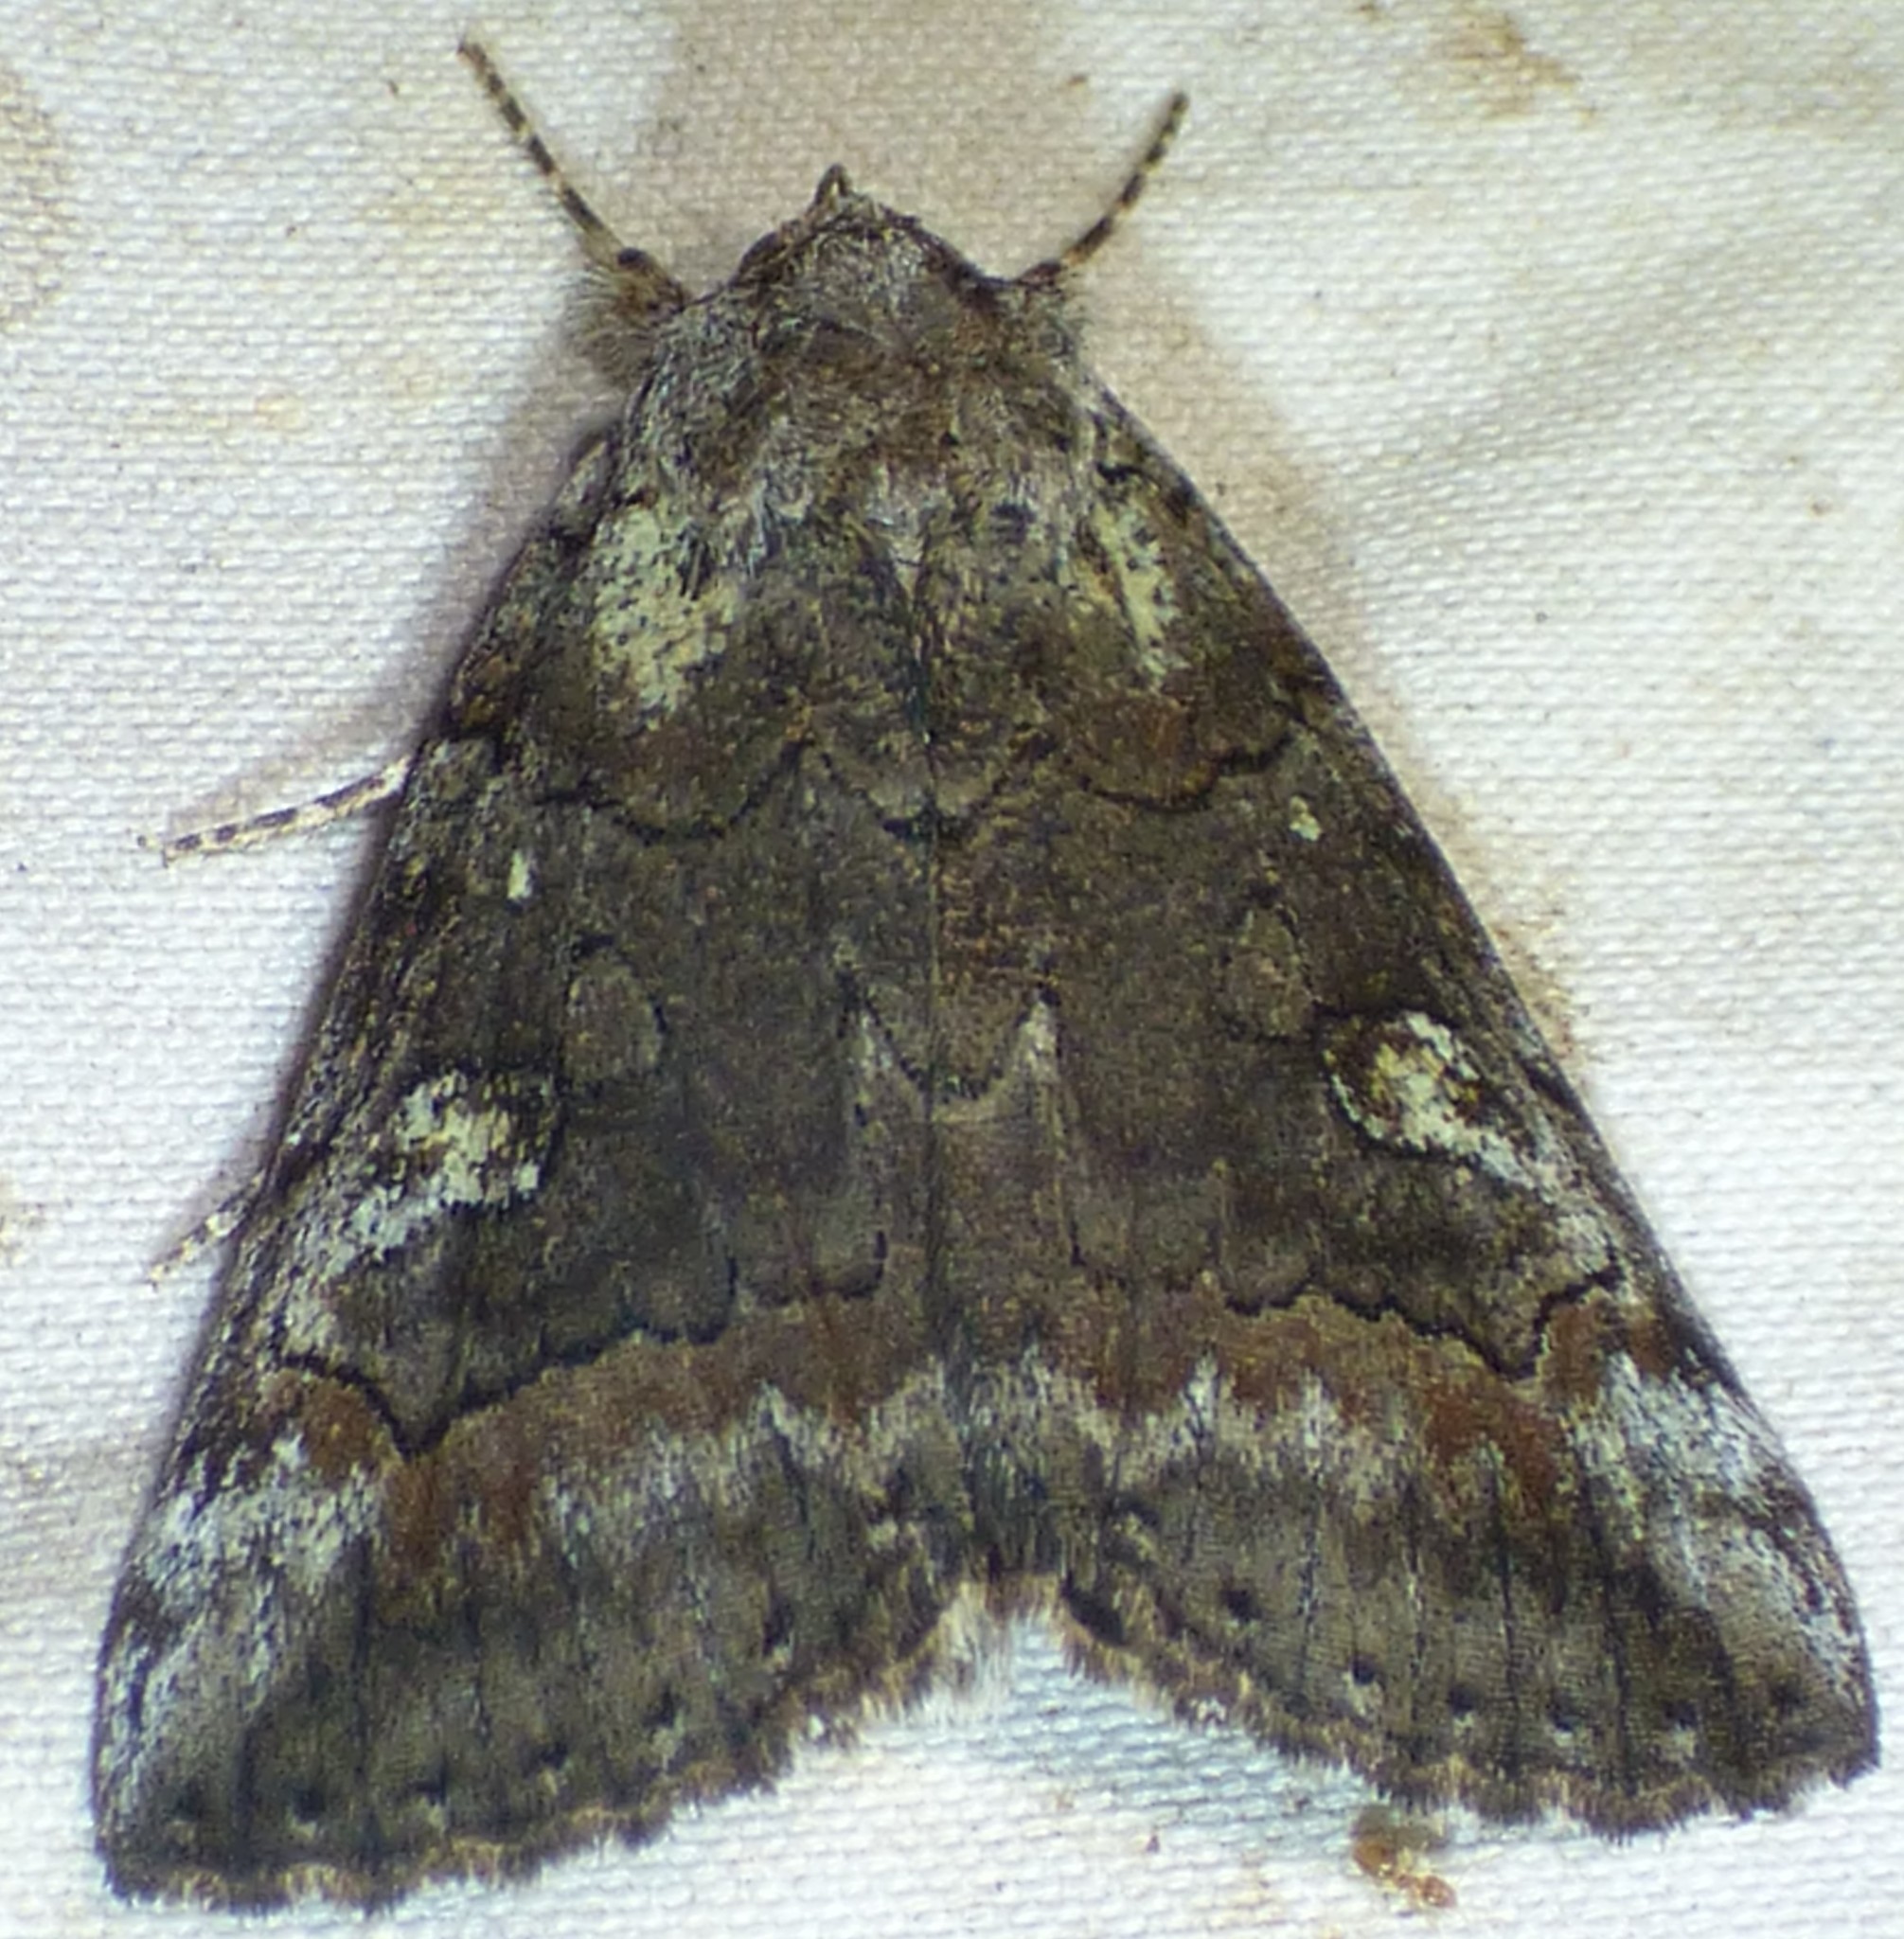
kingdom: Animalia
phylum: Arthropoda
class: Insecta
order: Lepidoptera
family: Erebidae
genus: Catocala
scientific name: Catocala similis
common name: Similar underwing
